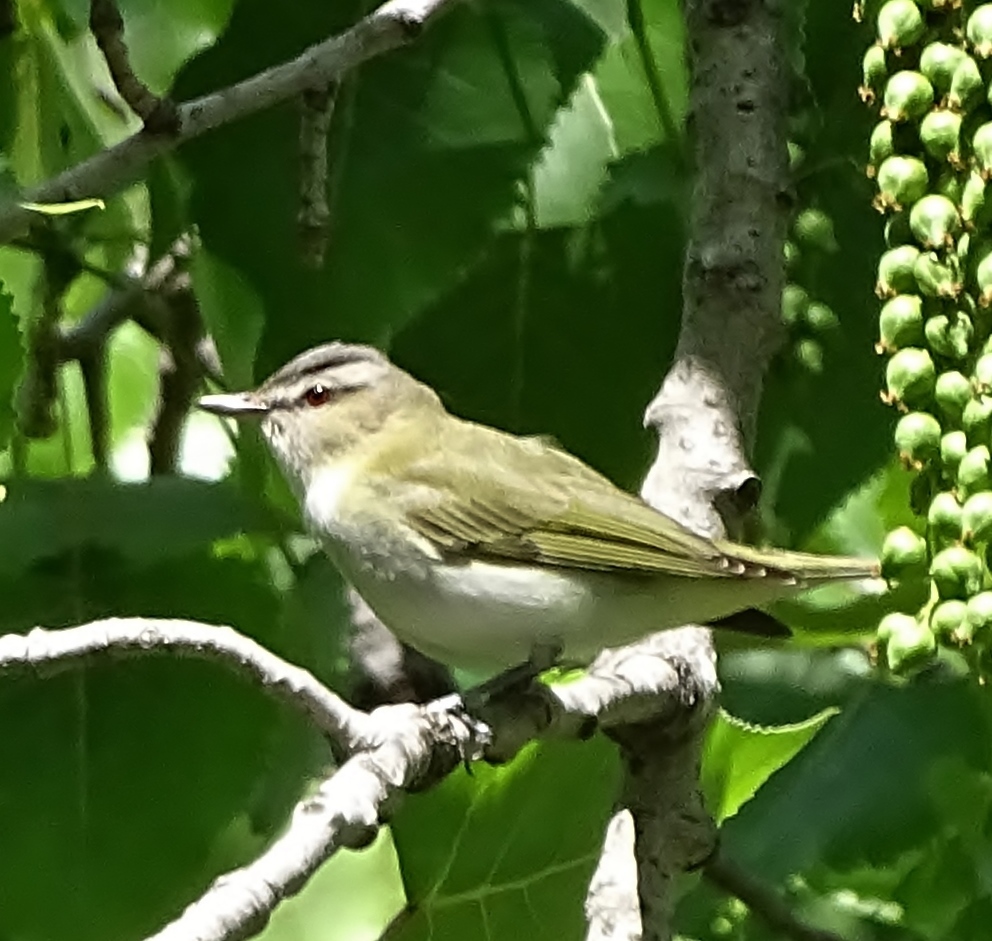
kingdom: Animalia
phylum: Chordata
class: Aves
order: Passeriformes
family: Vireonidae
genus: Vireo
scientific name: Vireo olivaceus
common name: Red-eyed vireo
